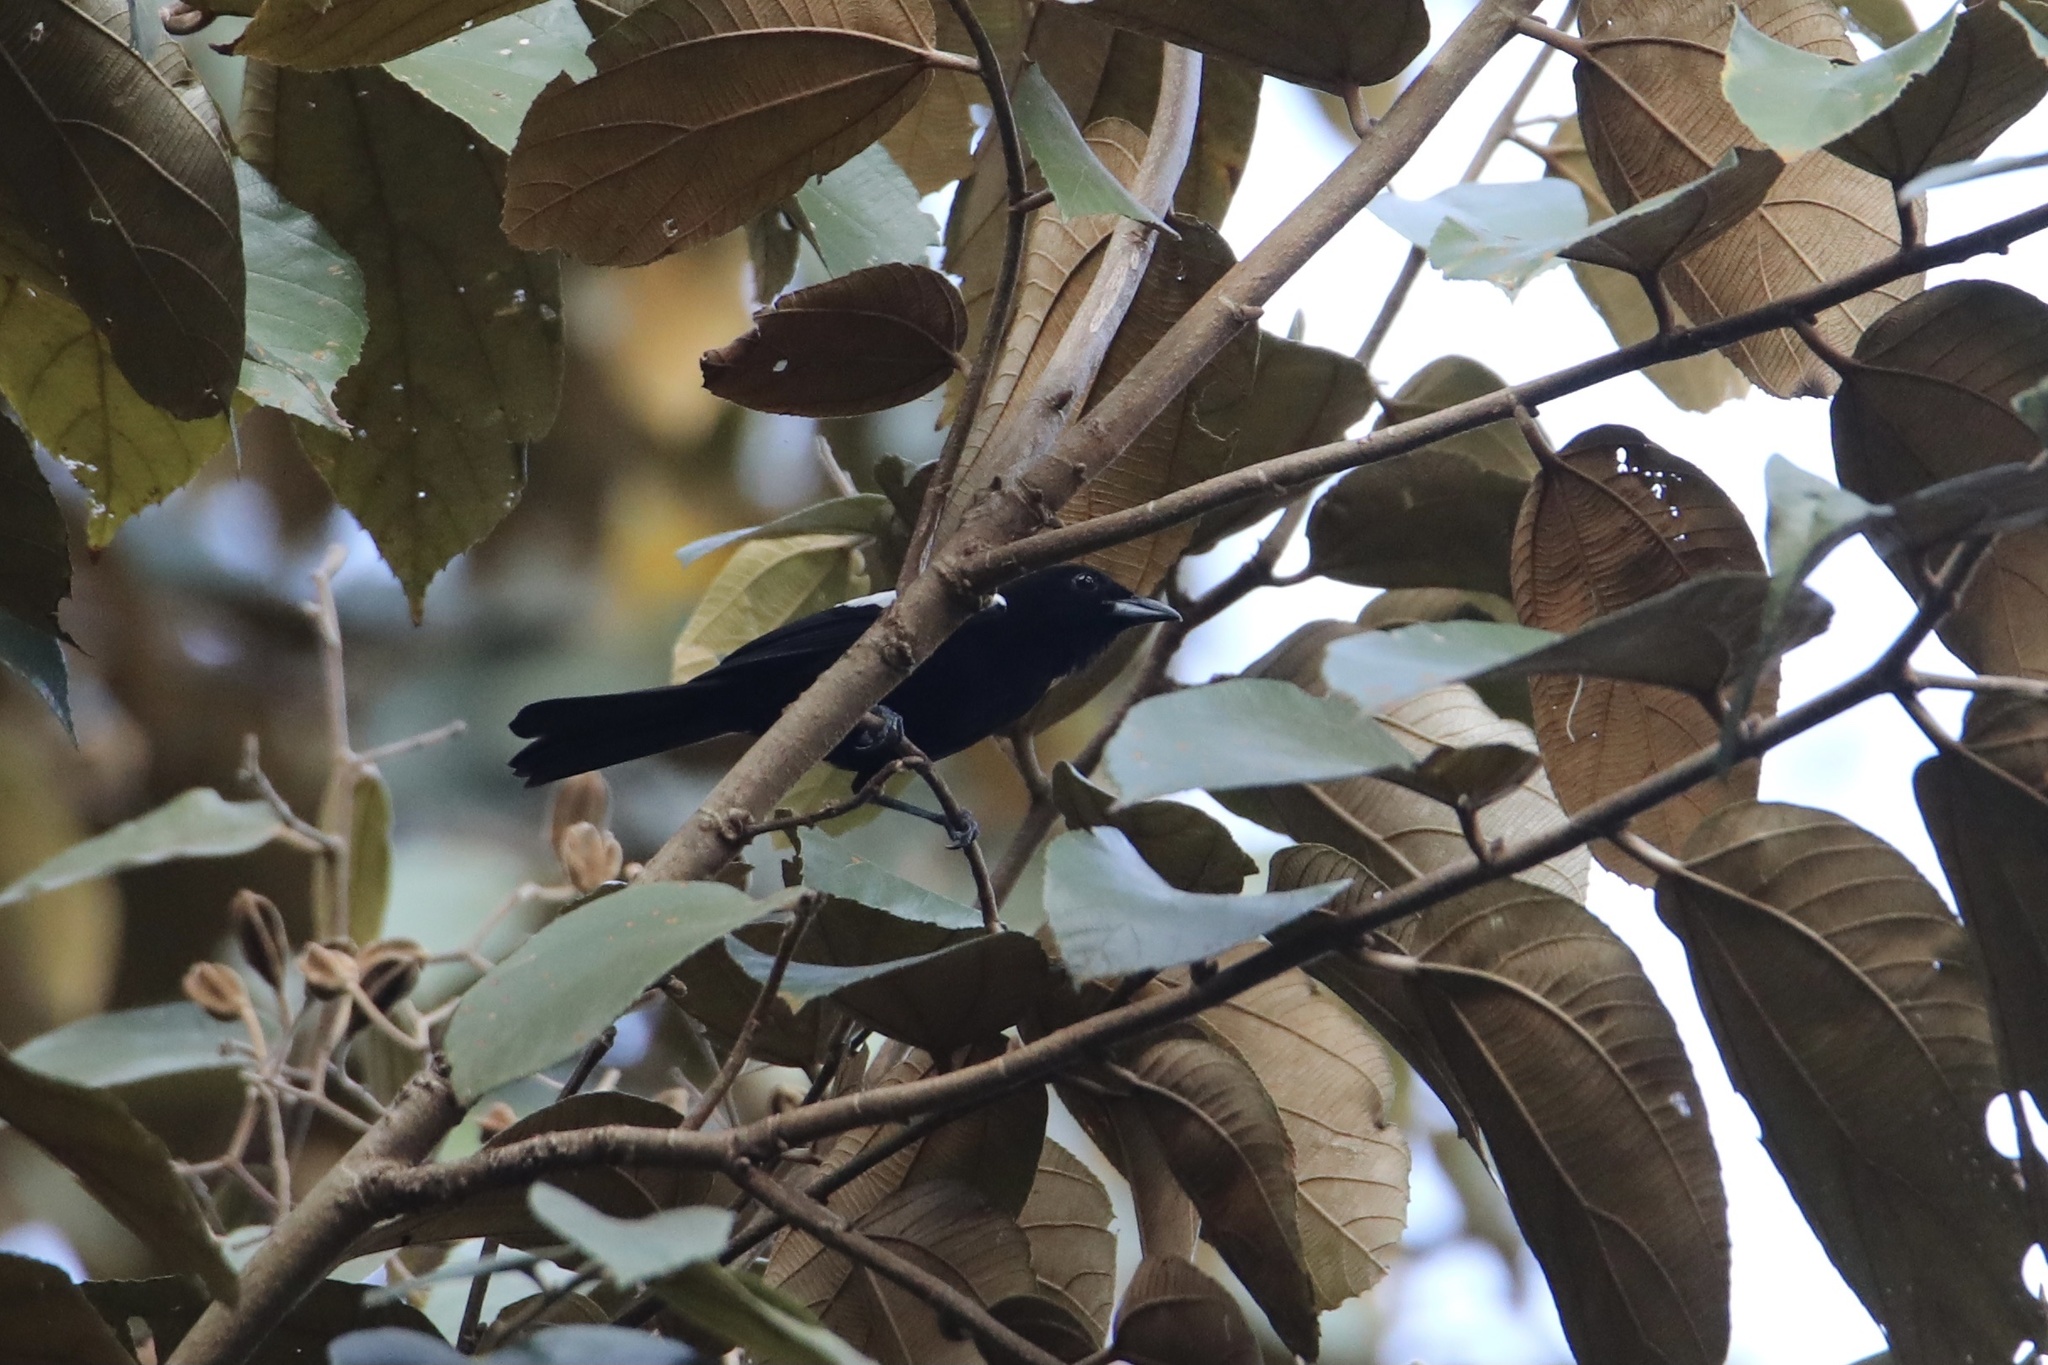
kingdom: Animalia
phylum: Chordata
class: Aves
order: Passeriformes
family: Thraupidae
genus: Loriotus
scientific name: Loriotus luctuosus
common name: White-shouldered tanager
